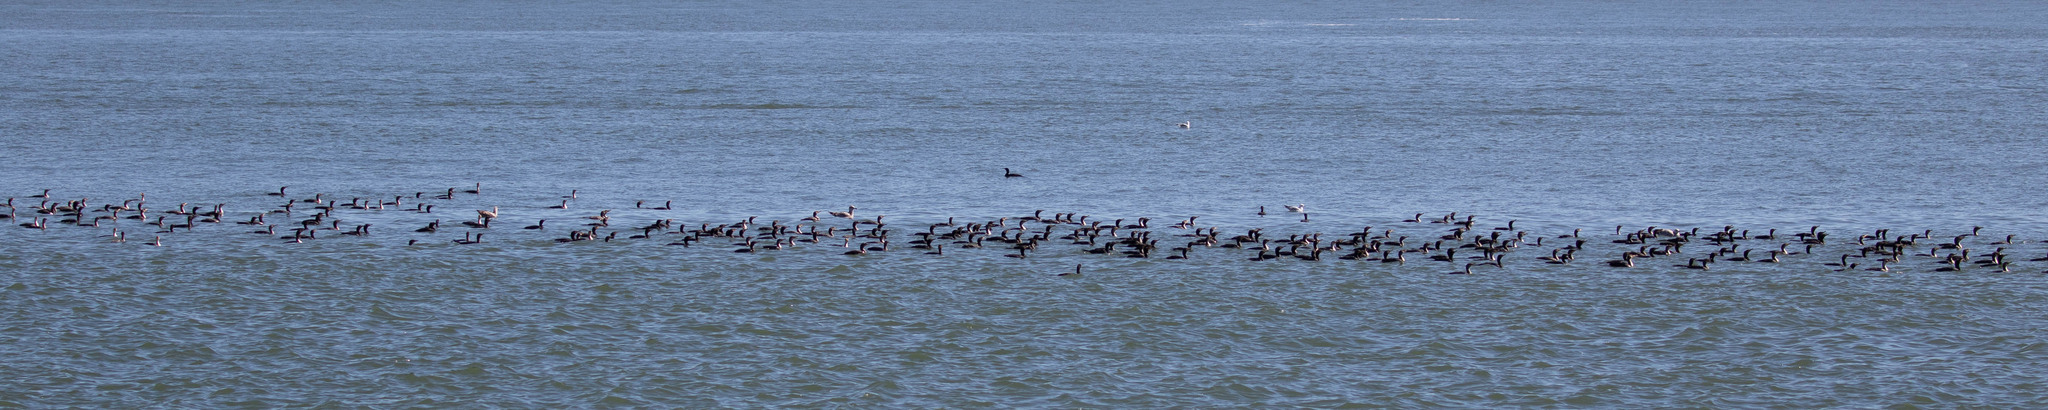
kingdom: Animalia
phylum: Chordata
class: Aves
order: Suliformes
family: Phalacrocoracidae
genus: Phalacrocorax
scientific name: Phalacrocorax auritus
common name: Double-crested cormorant
